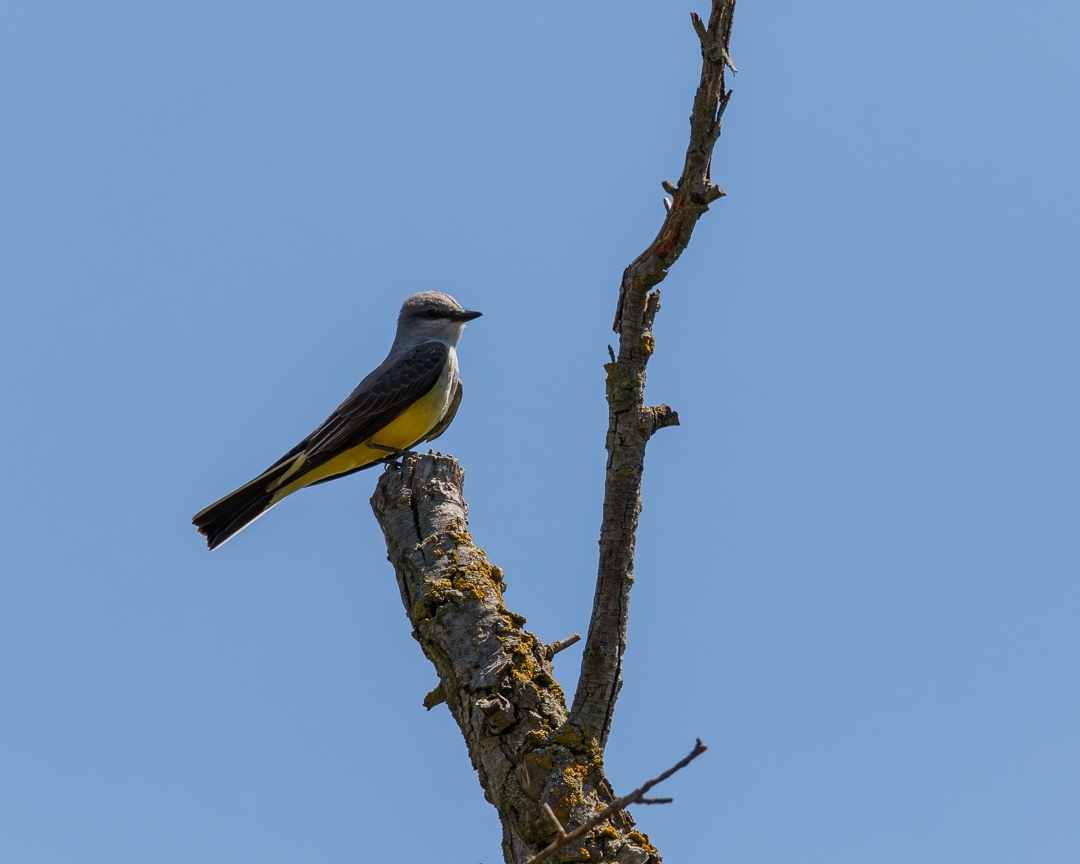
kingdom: Animalia
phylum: Chordata
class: Aves
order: Passeriformes
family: Tyrannidae
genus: Tyrannus
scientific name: Tyrannus verticalis
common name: Western kingbird
